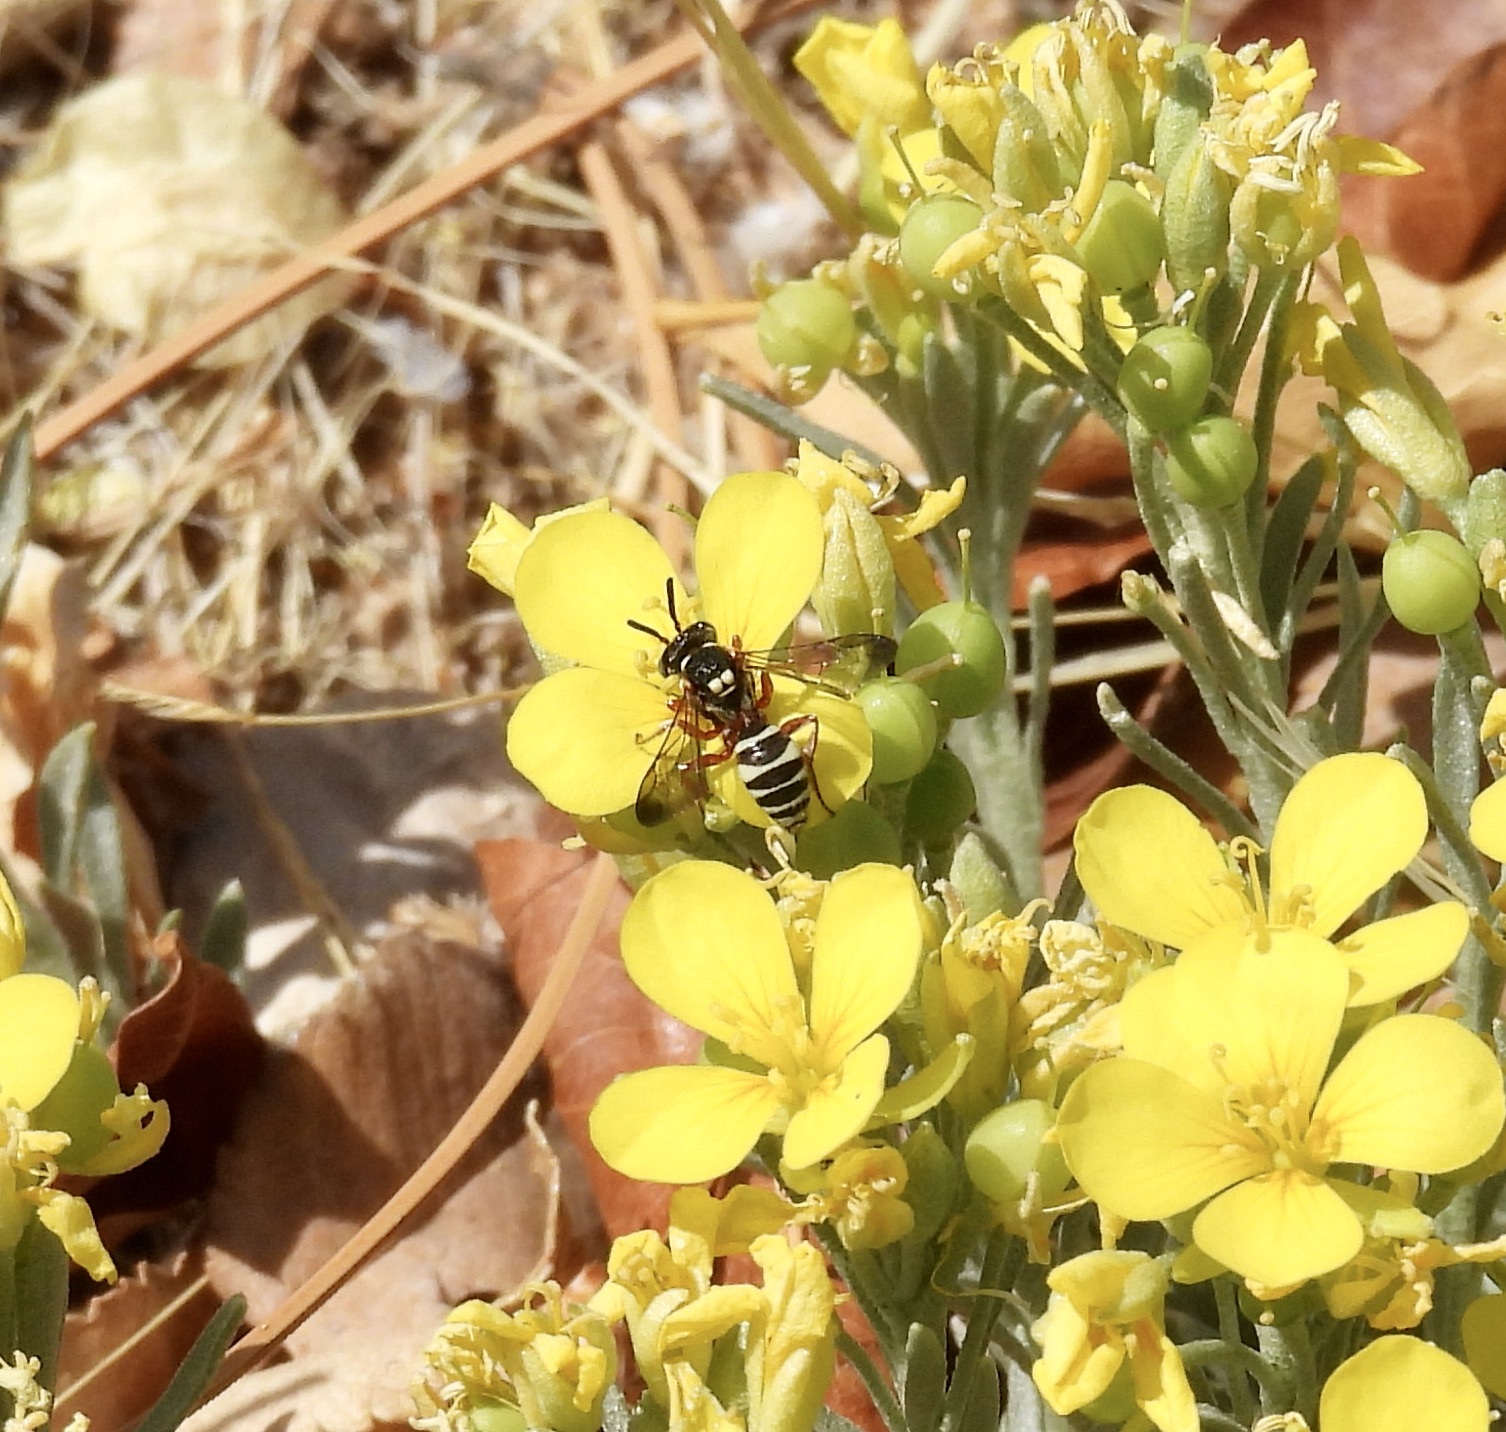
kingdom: Animalia
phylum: Arthropoda
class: Insecta
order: Hymenoptera
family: Apidae
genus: Nomada
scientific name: Nomada texana
